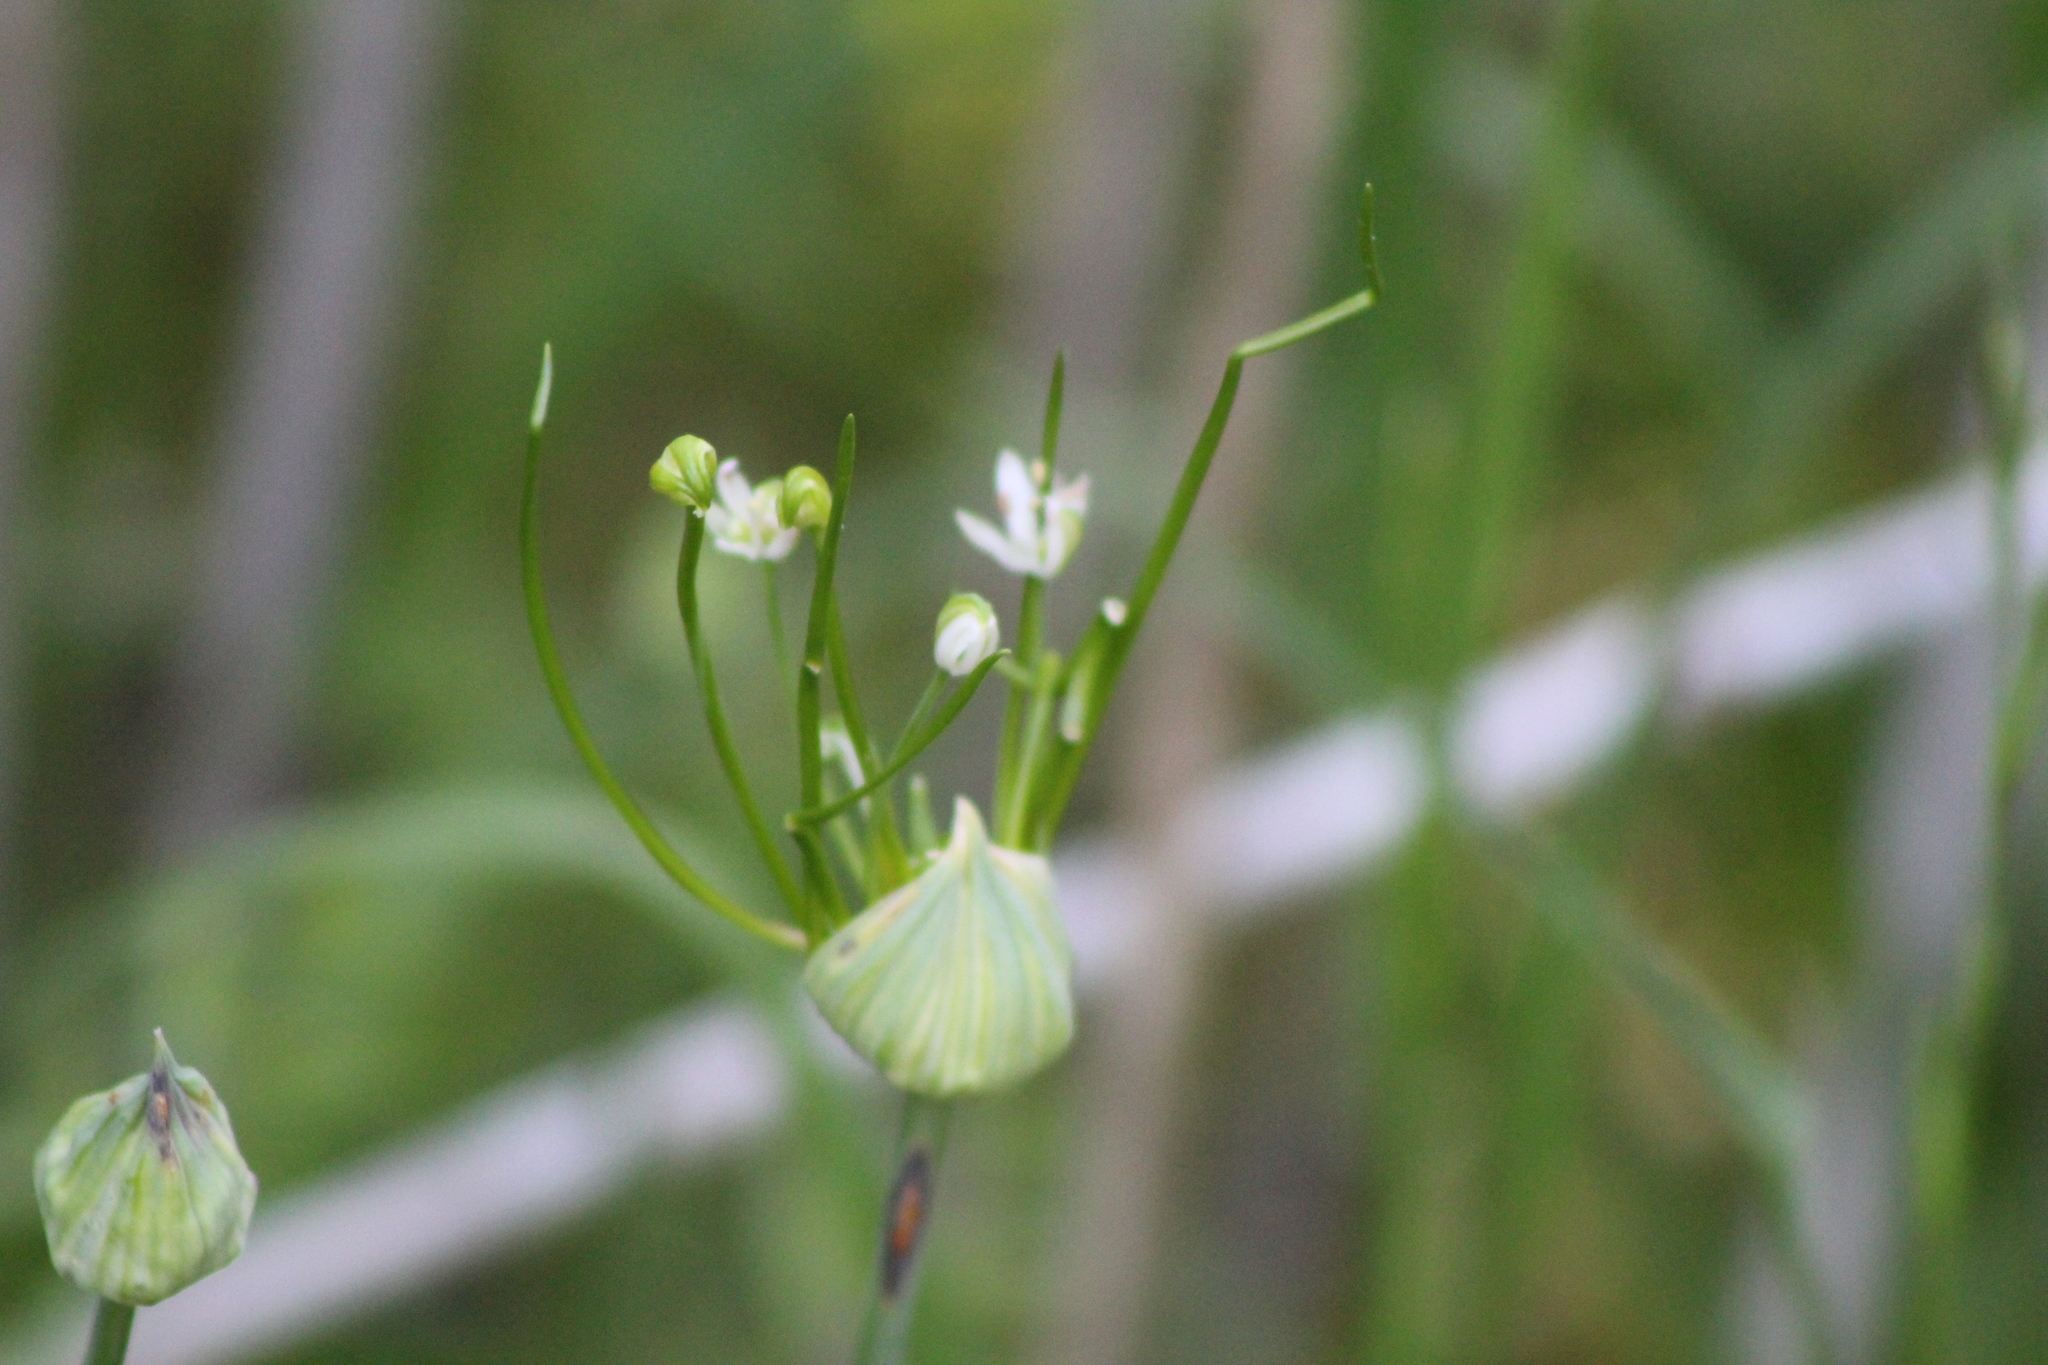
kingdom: Plantae
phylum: Tracheophyta
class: Liliopsida
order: Asparagales
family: Amaryllidaceae
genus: Allium
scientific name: Allium canadense
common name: Meadow garlic
